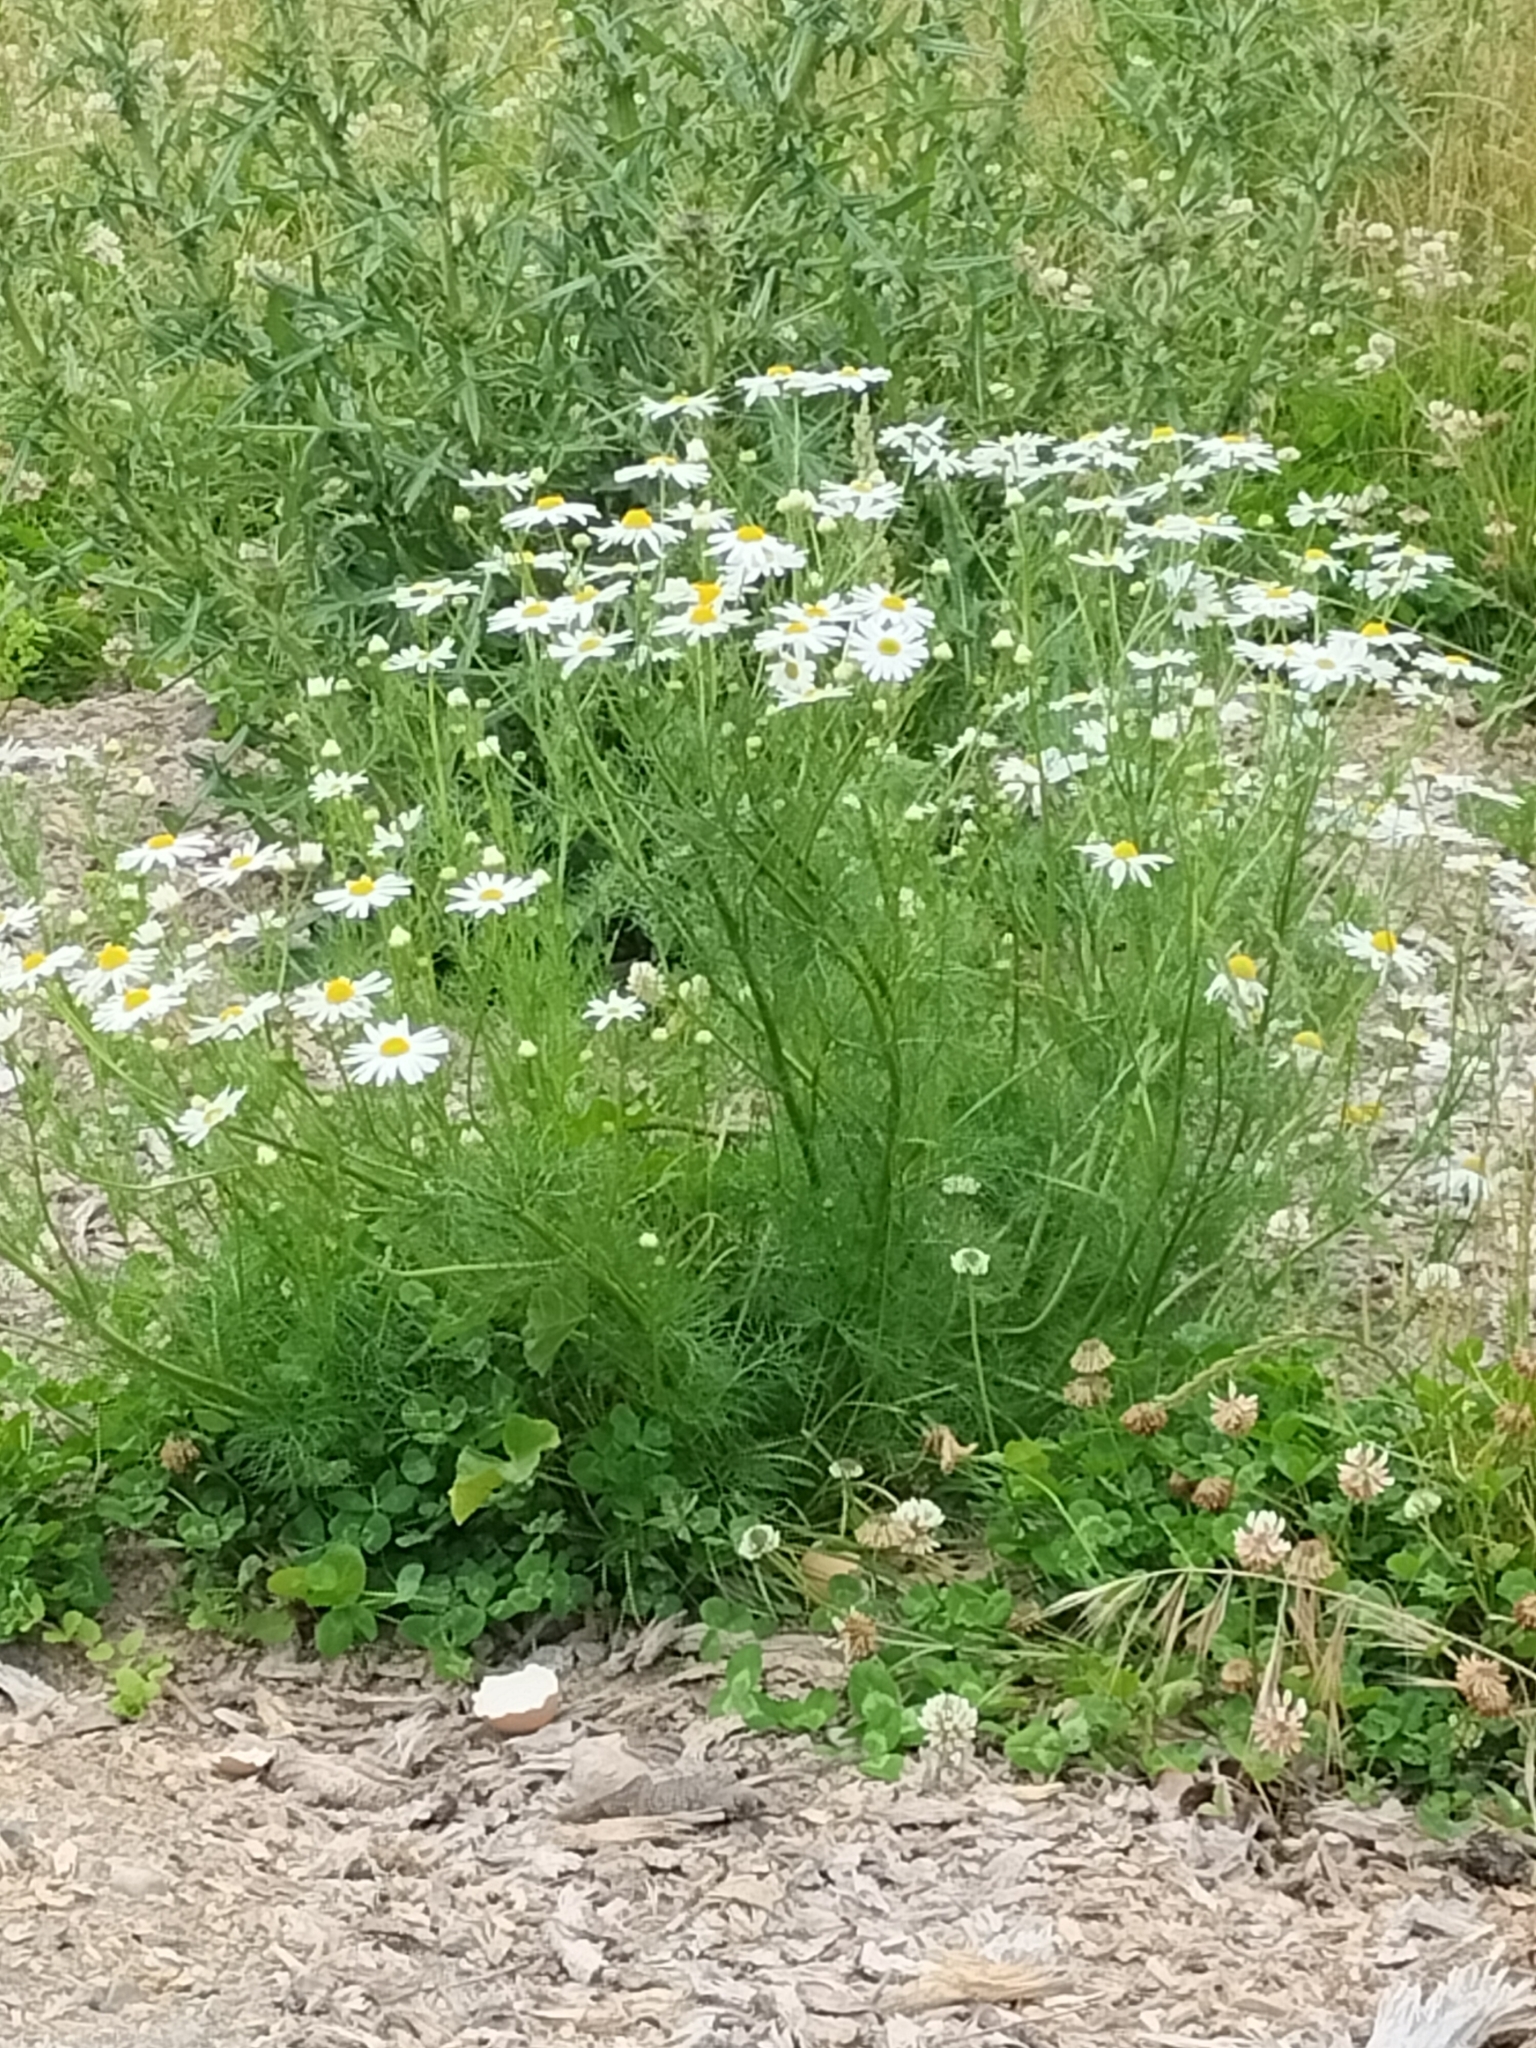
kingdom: Plantae
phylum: Tracheophyta
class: Magnoliopsida
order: Asterales
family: Asteraceae
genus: Tripleurospermum
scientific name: Tripleurospermum inodorum
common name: Scentless mayweed
